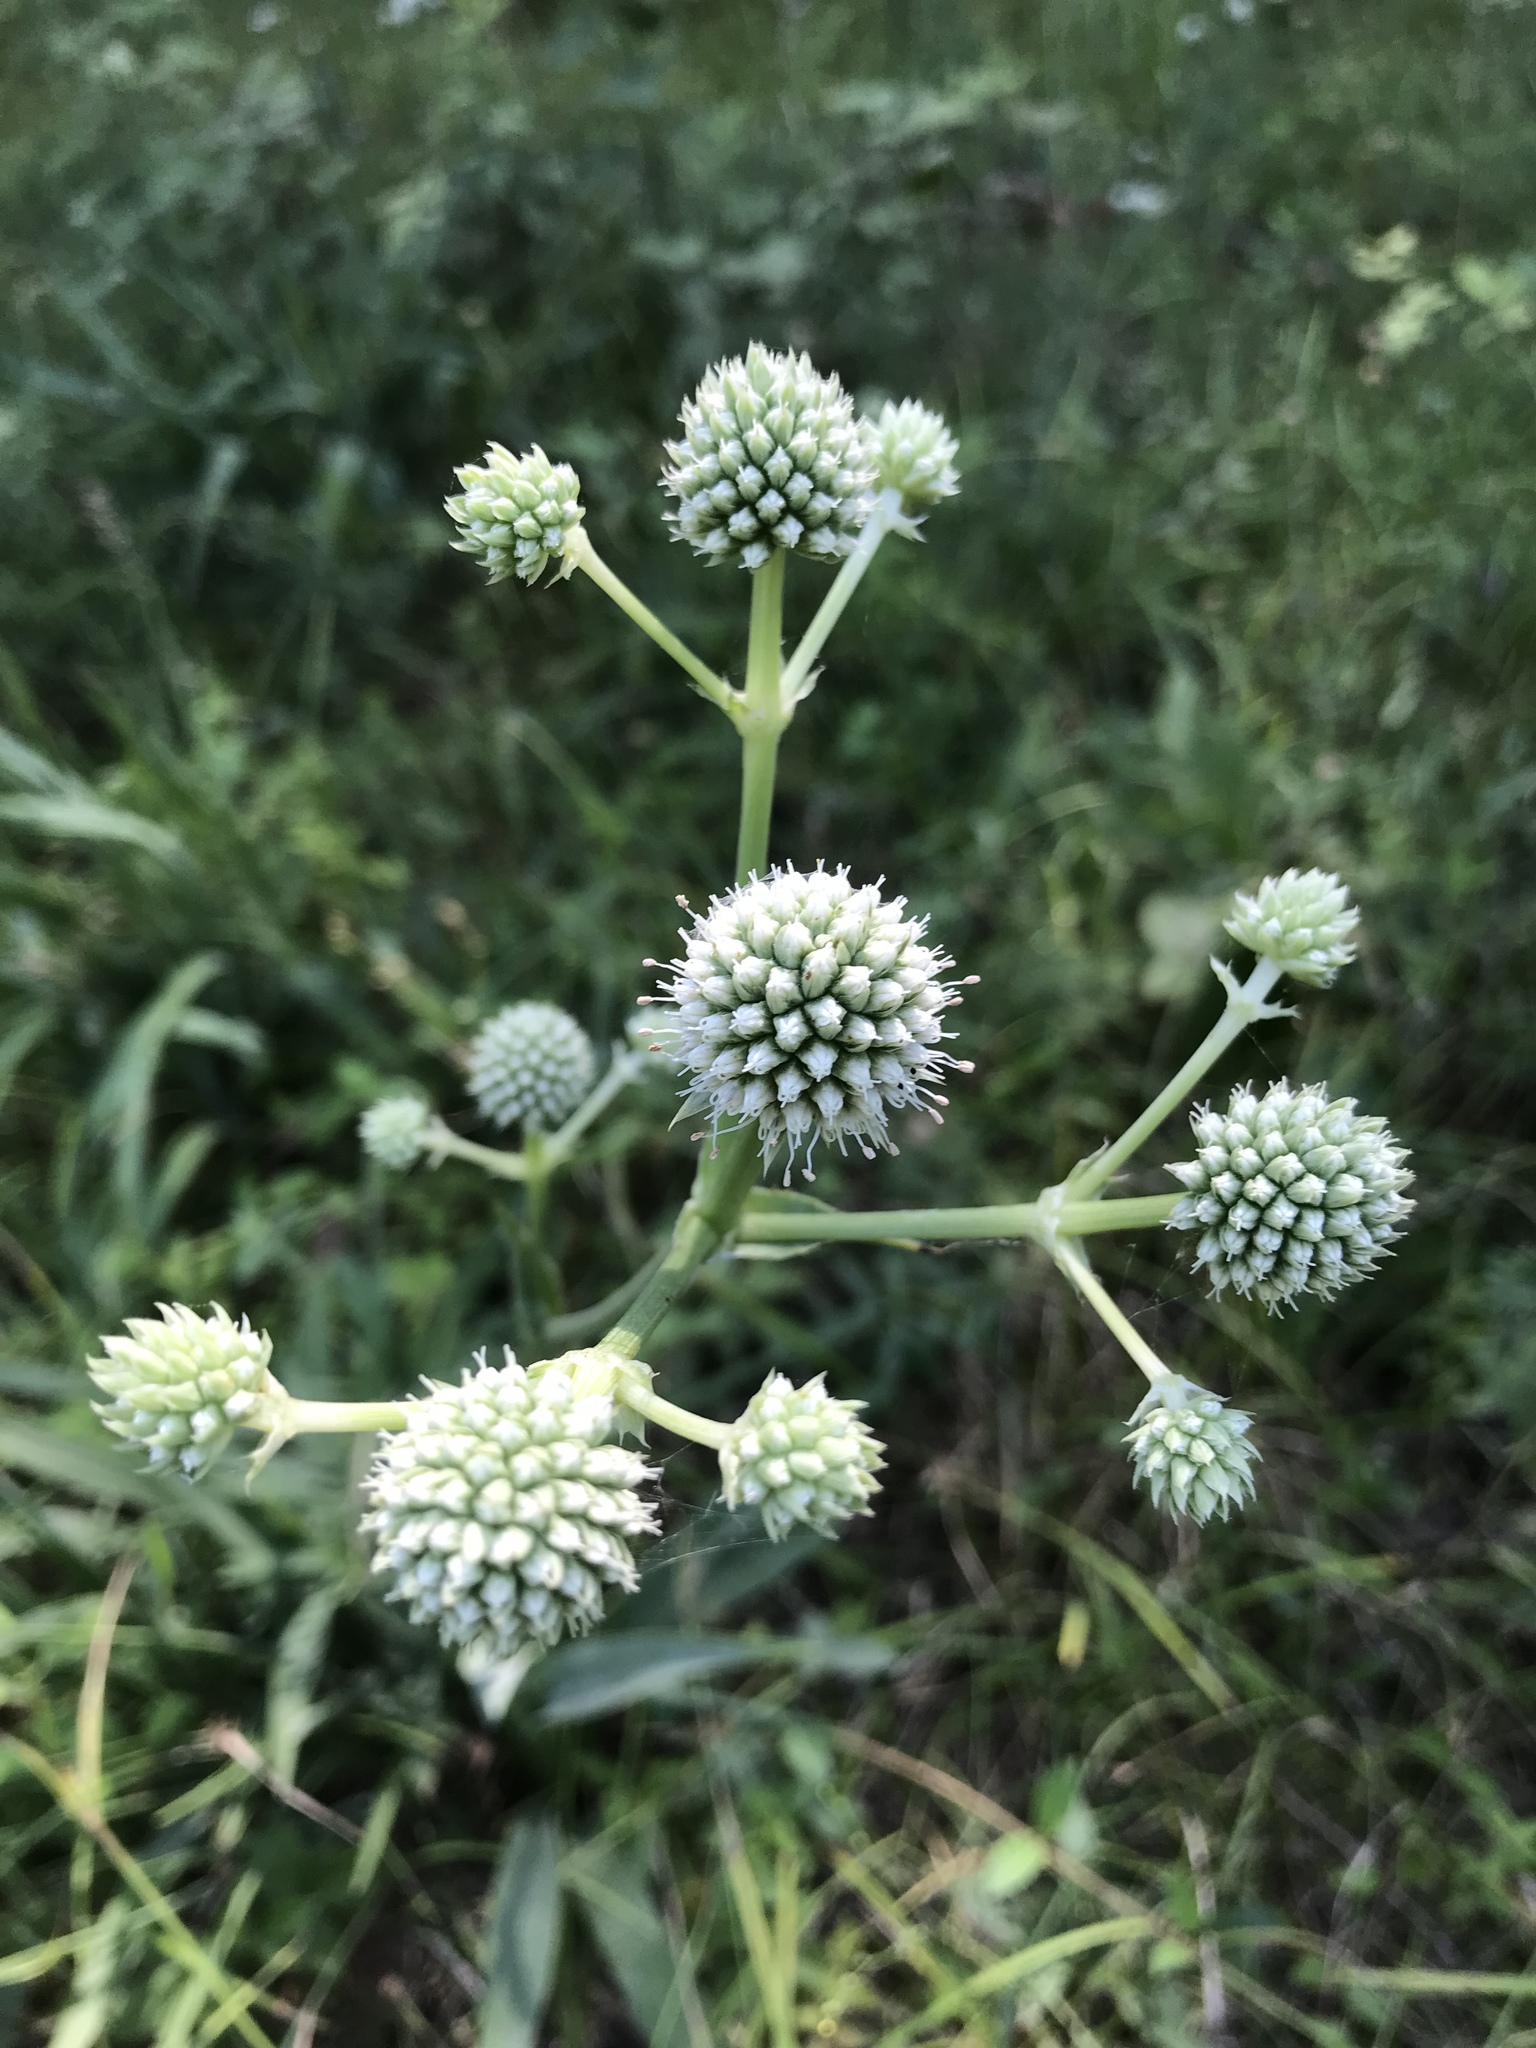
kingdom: Plantae
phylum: Tracheophyta
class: Magnoliopsida
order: Apiales
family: Apiaceae
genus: Eryngium
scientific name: Eryngium yuccifolium
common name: Button eryngo
